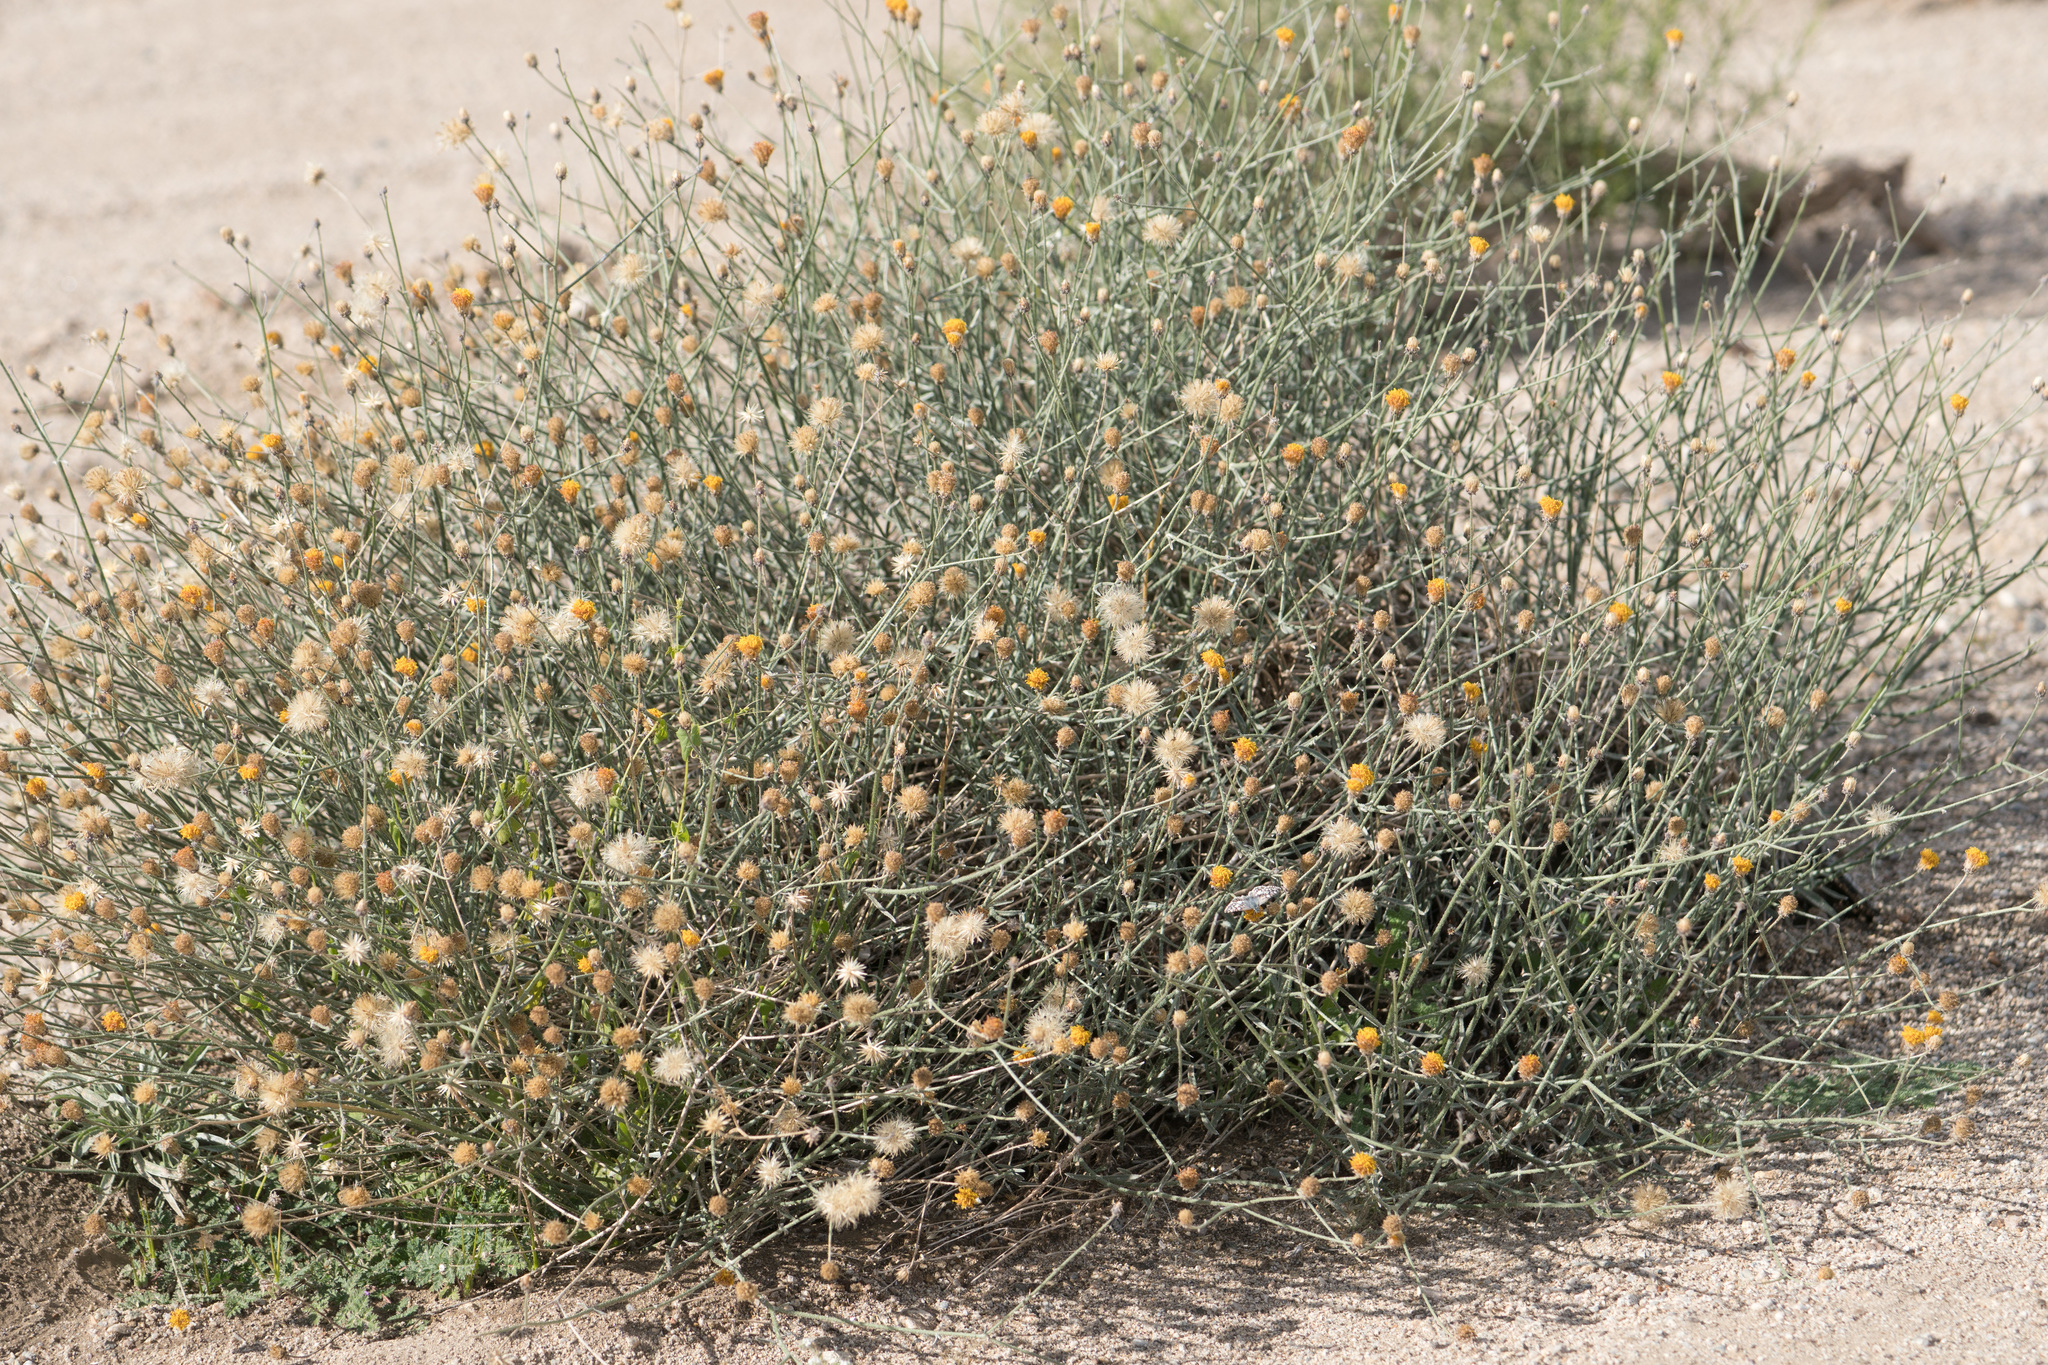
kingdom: Plantae
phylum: Tracheophyta
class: Magnoliopsida
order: Asterales
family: Asteraceae
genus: Bebbia
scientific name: Bebbia juncea
